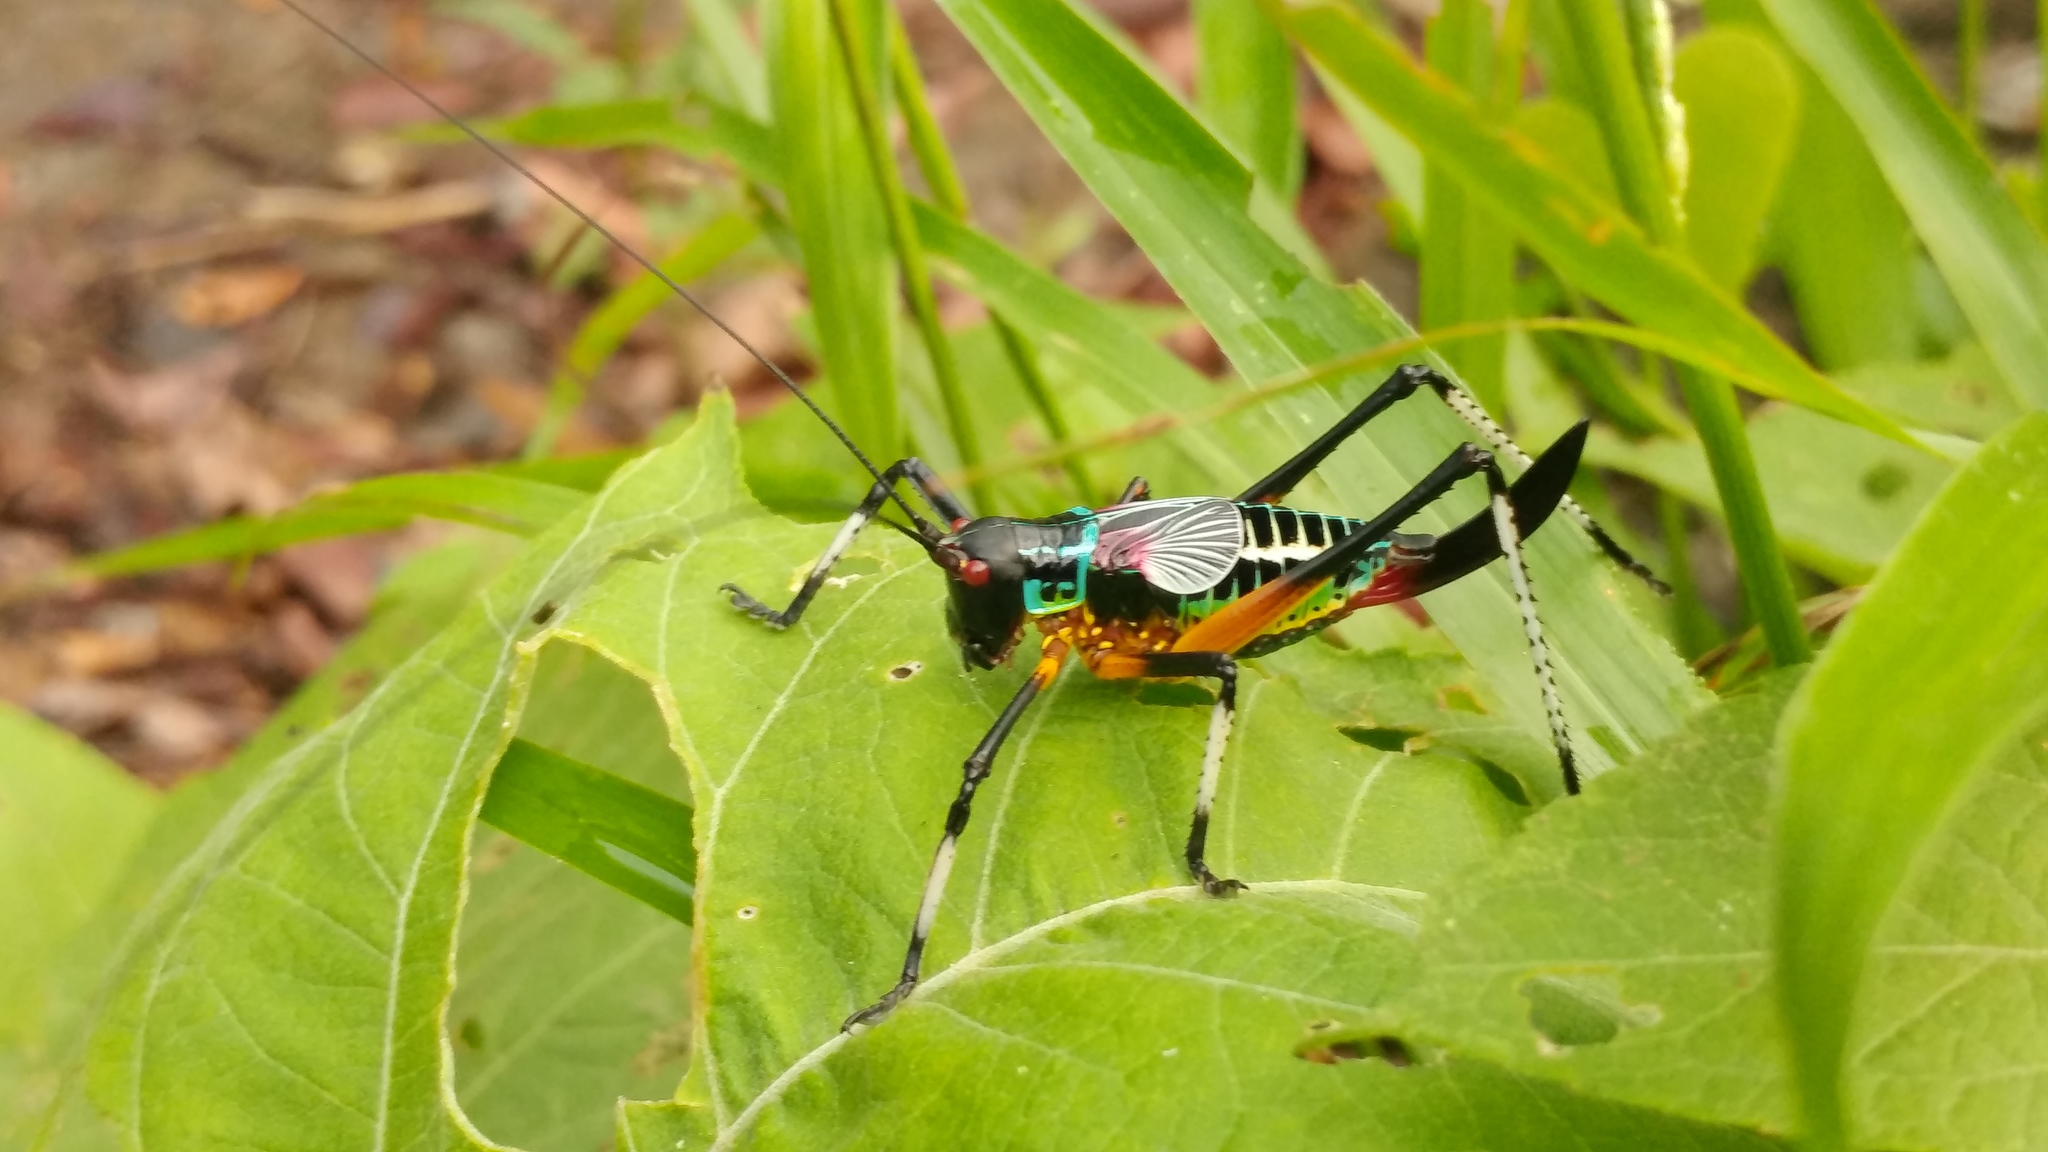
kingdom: Animalia
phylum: Arthropoda
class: Insecta
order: Orthoptera
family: Tettigoniidae
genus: Pterophylla
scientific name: Pterophylla beltrani
